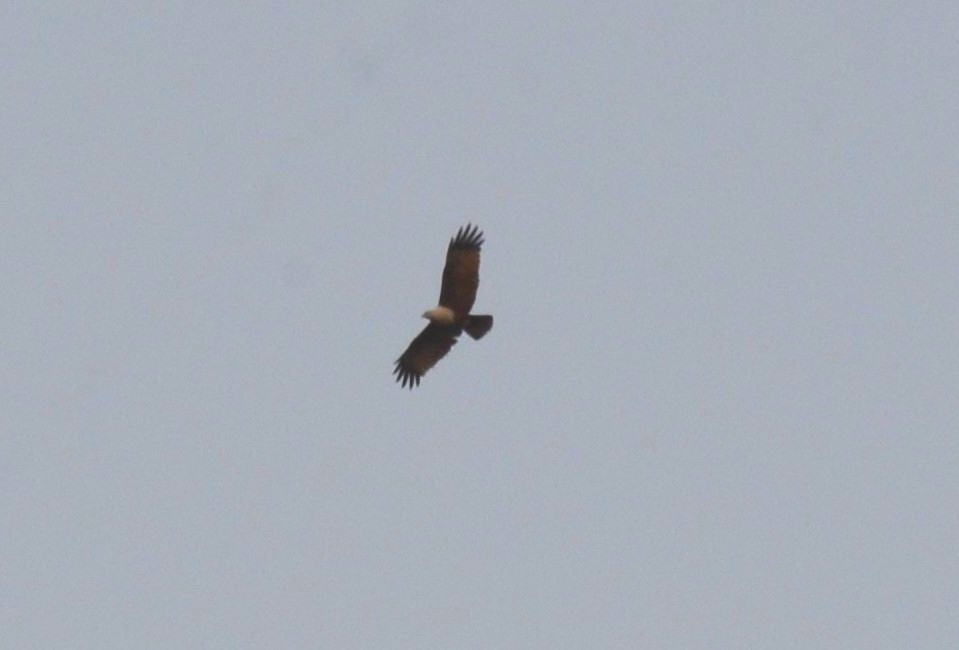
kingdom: Animalia
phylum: Chordata
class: Aves
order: Accipitriformes
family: Accipitridae
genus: Haliastur
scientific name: Haliastur indus
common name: Brahminy kite
